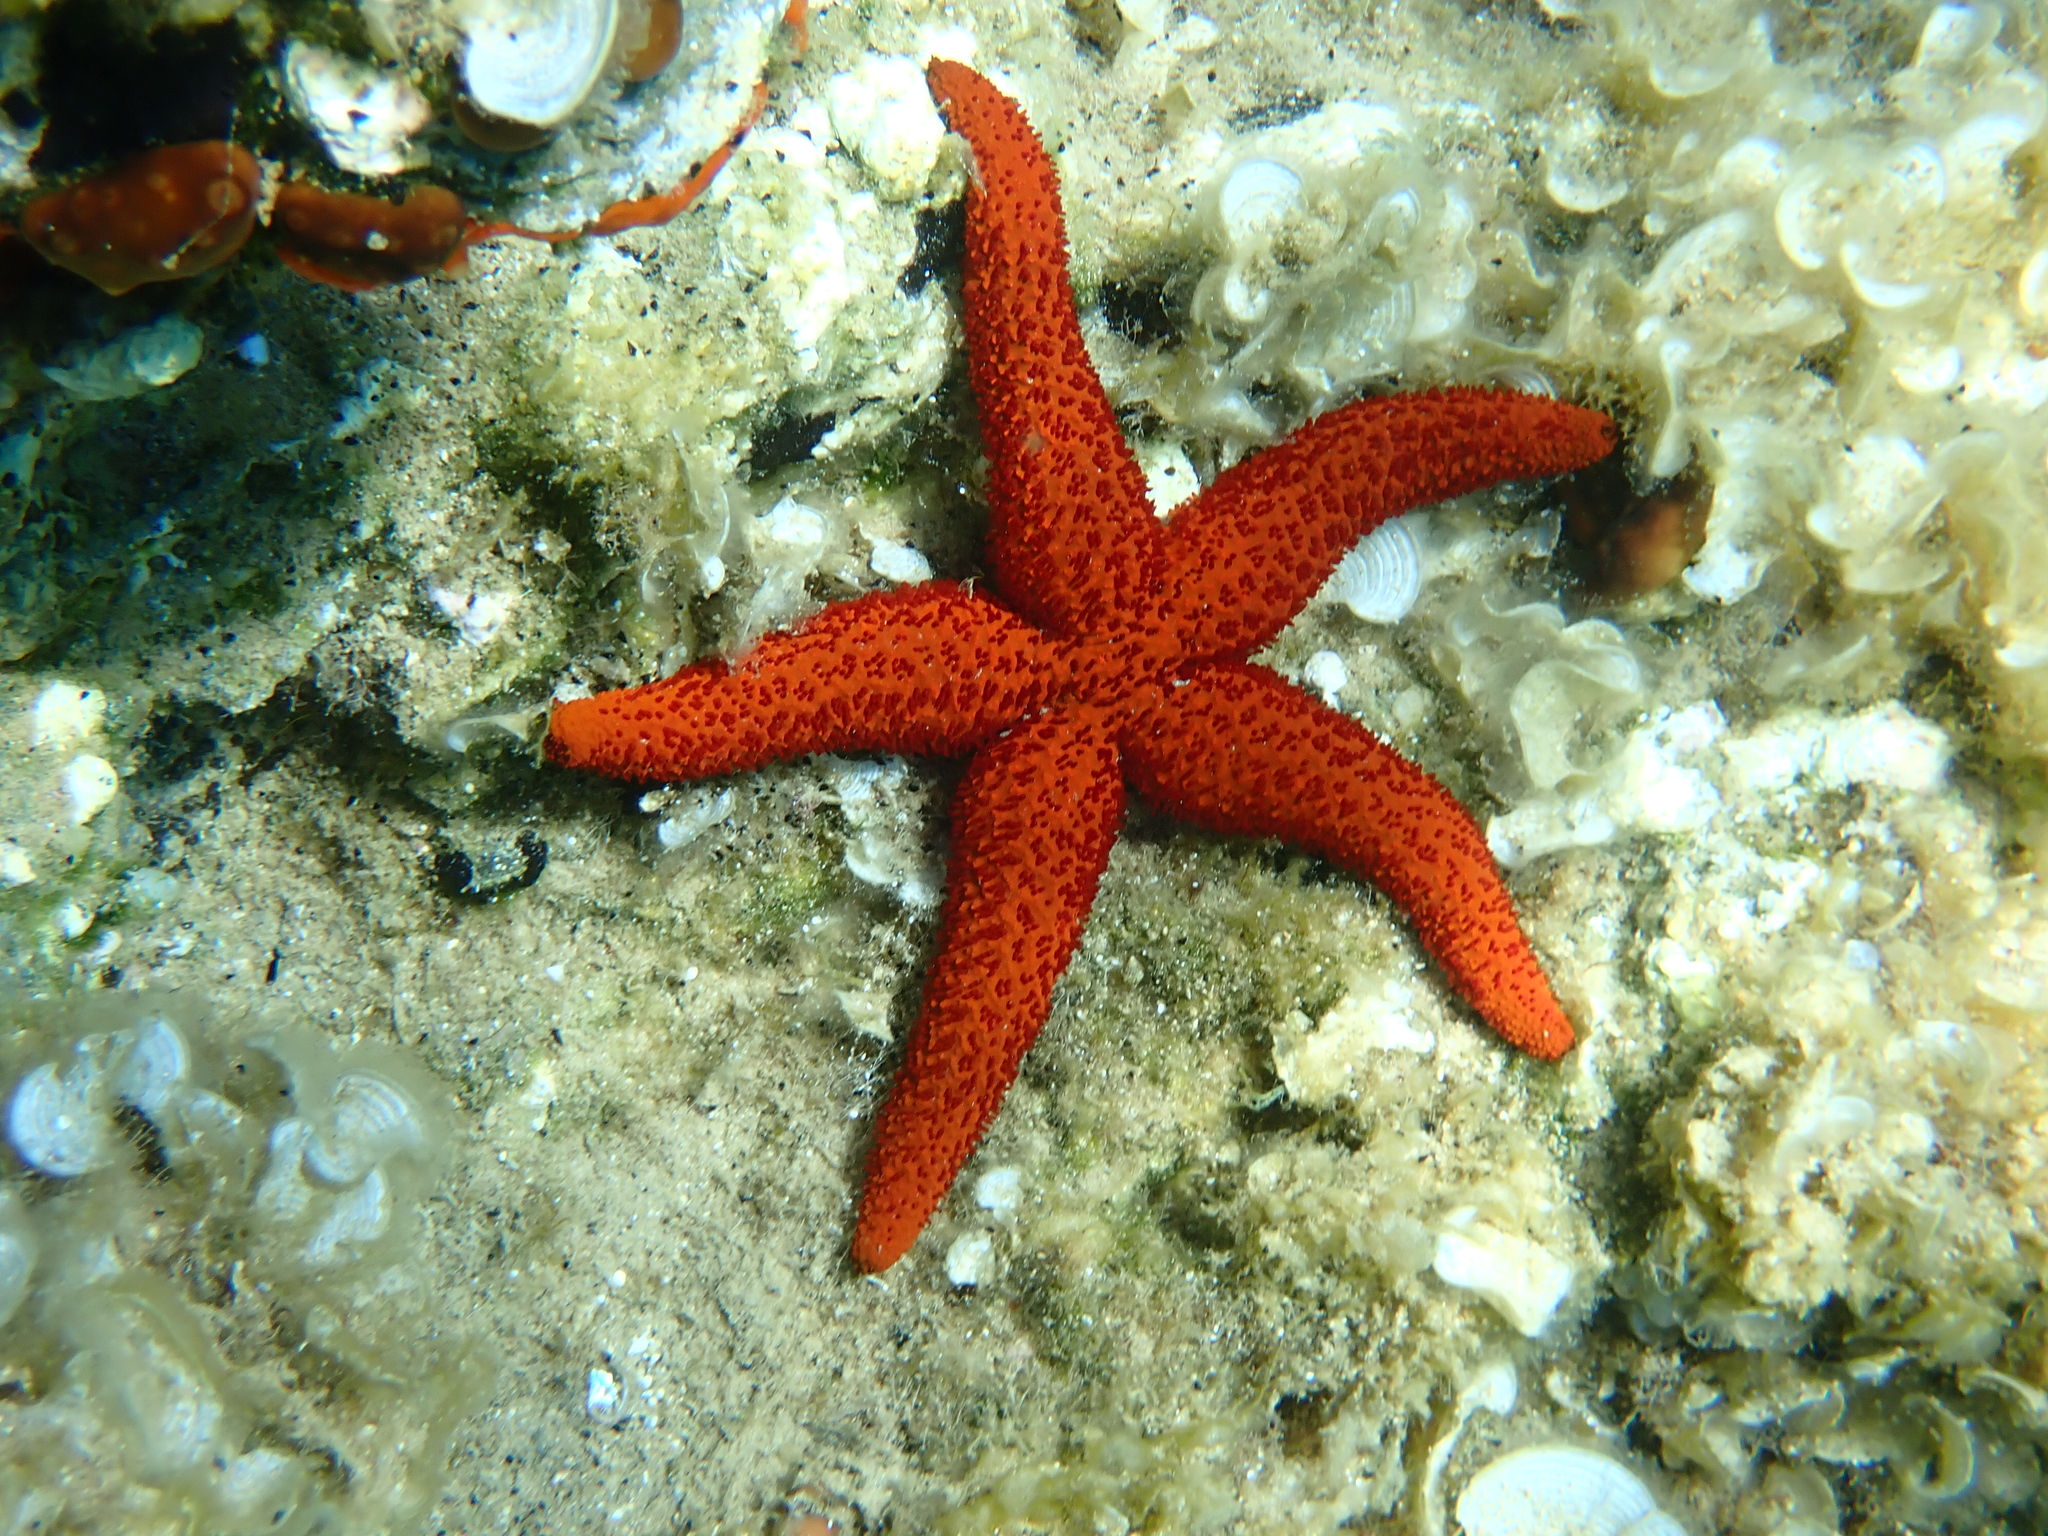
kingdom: Animalia
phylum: Echinodermata
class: Asteroidea
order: Spinulosida
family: Echinasteridae
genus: Echinaster
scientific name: Echinaster sepositus
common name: Red starfish
